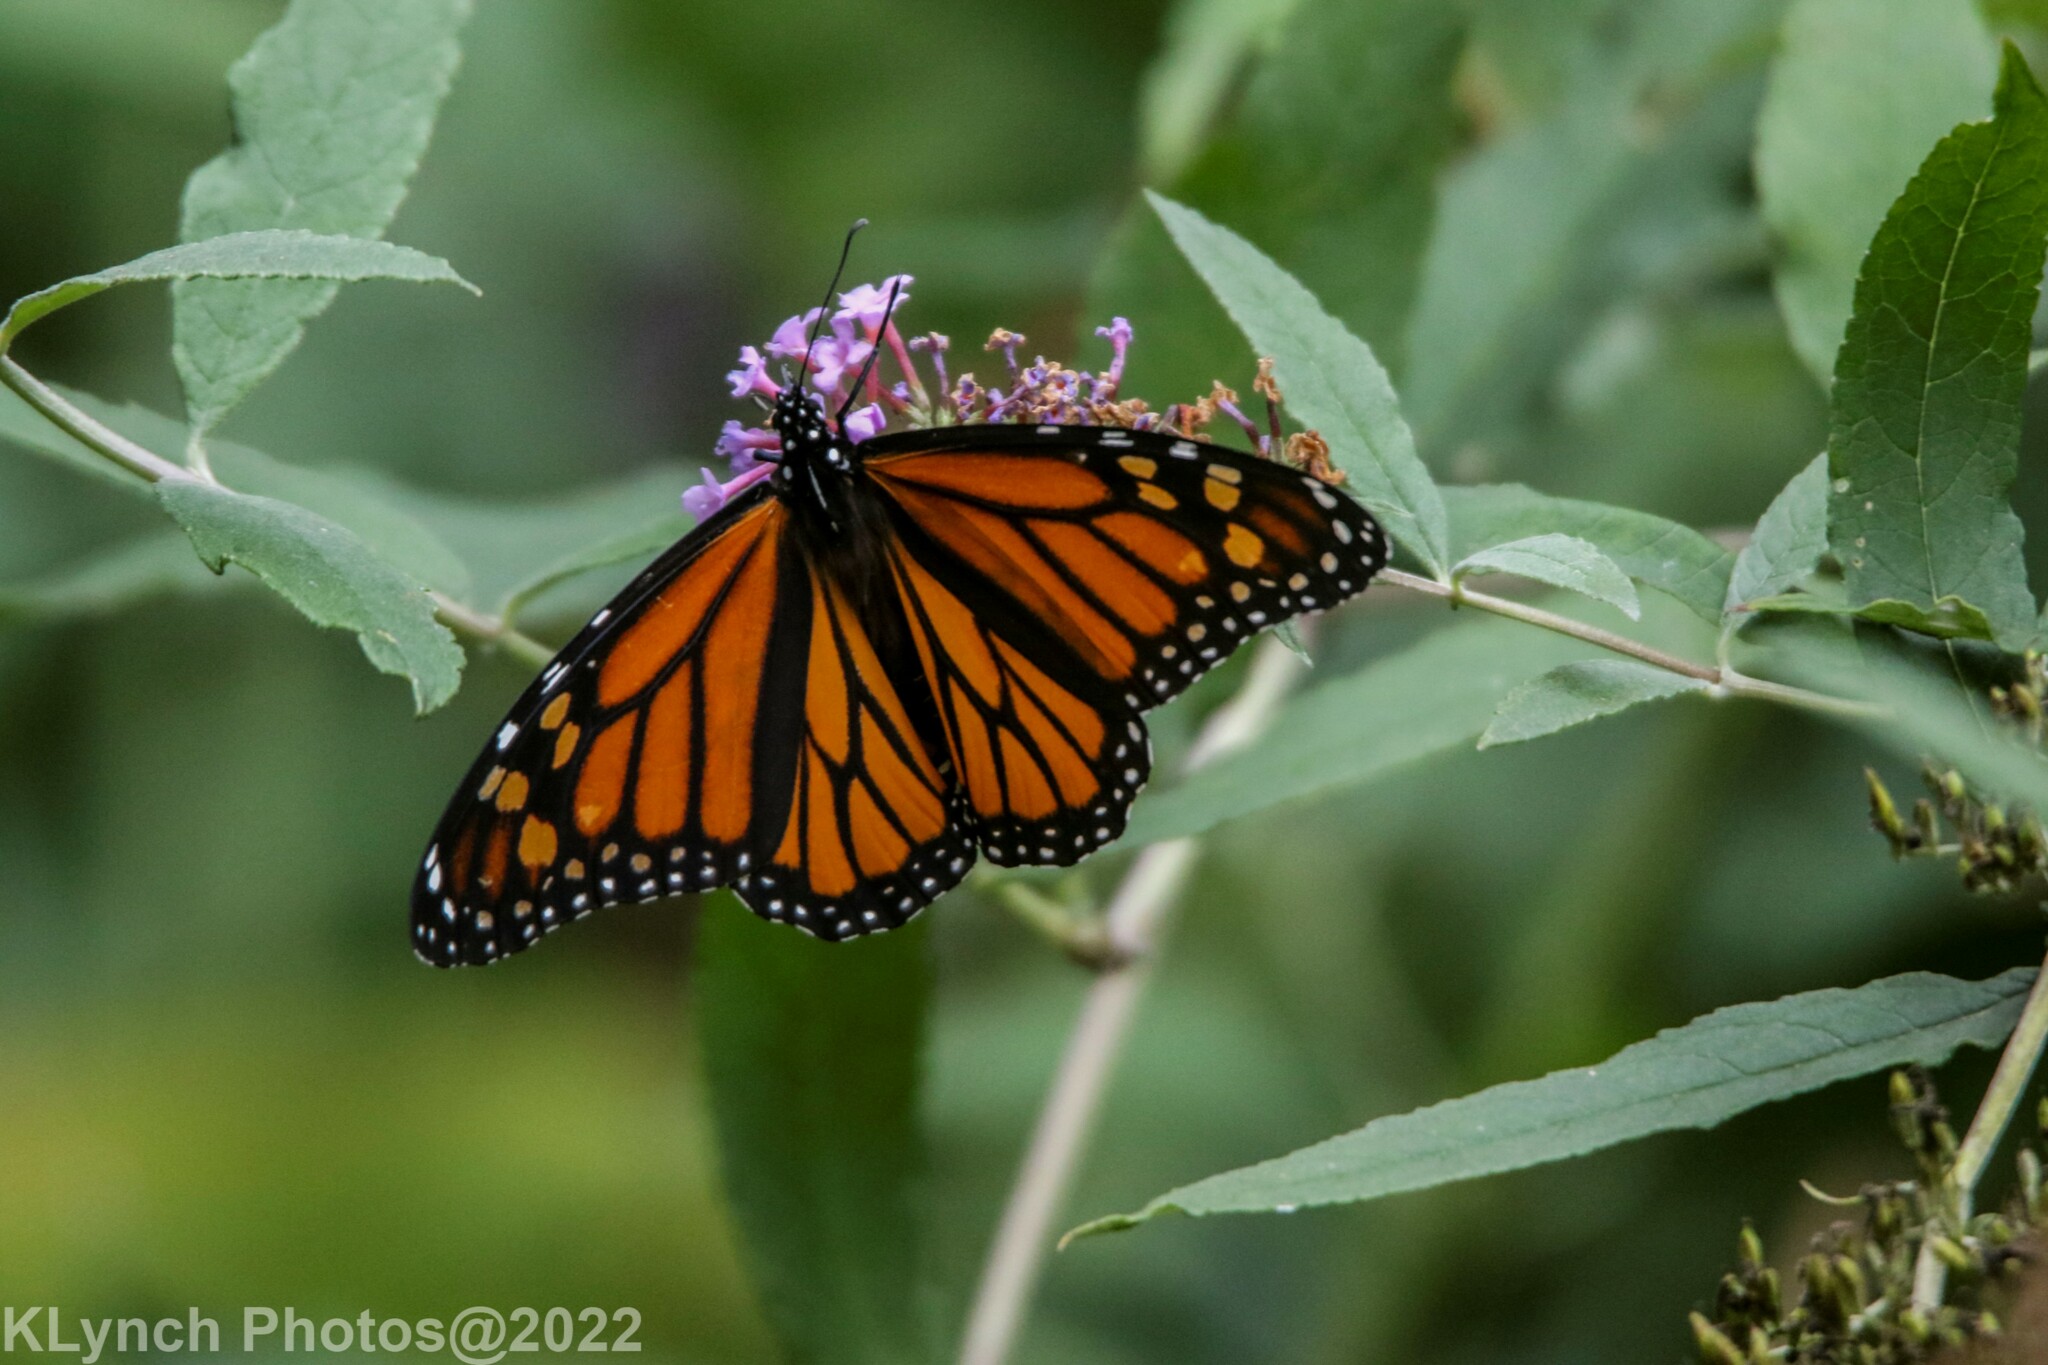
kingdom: Animalia
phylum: Arthropoda
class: Insecta
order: Lepidoptera
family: Nymphalidae
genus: Danaus
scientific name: Danaus plexippus
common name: Monarch
